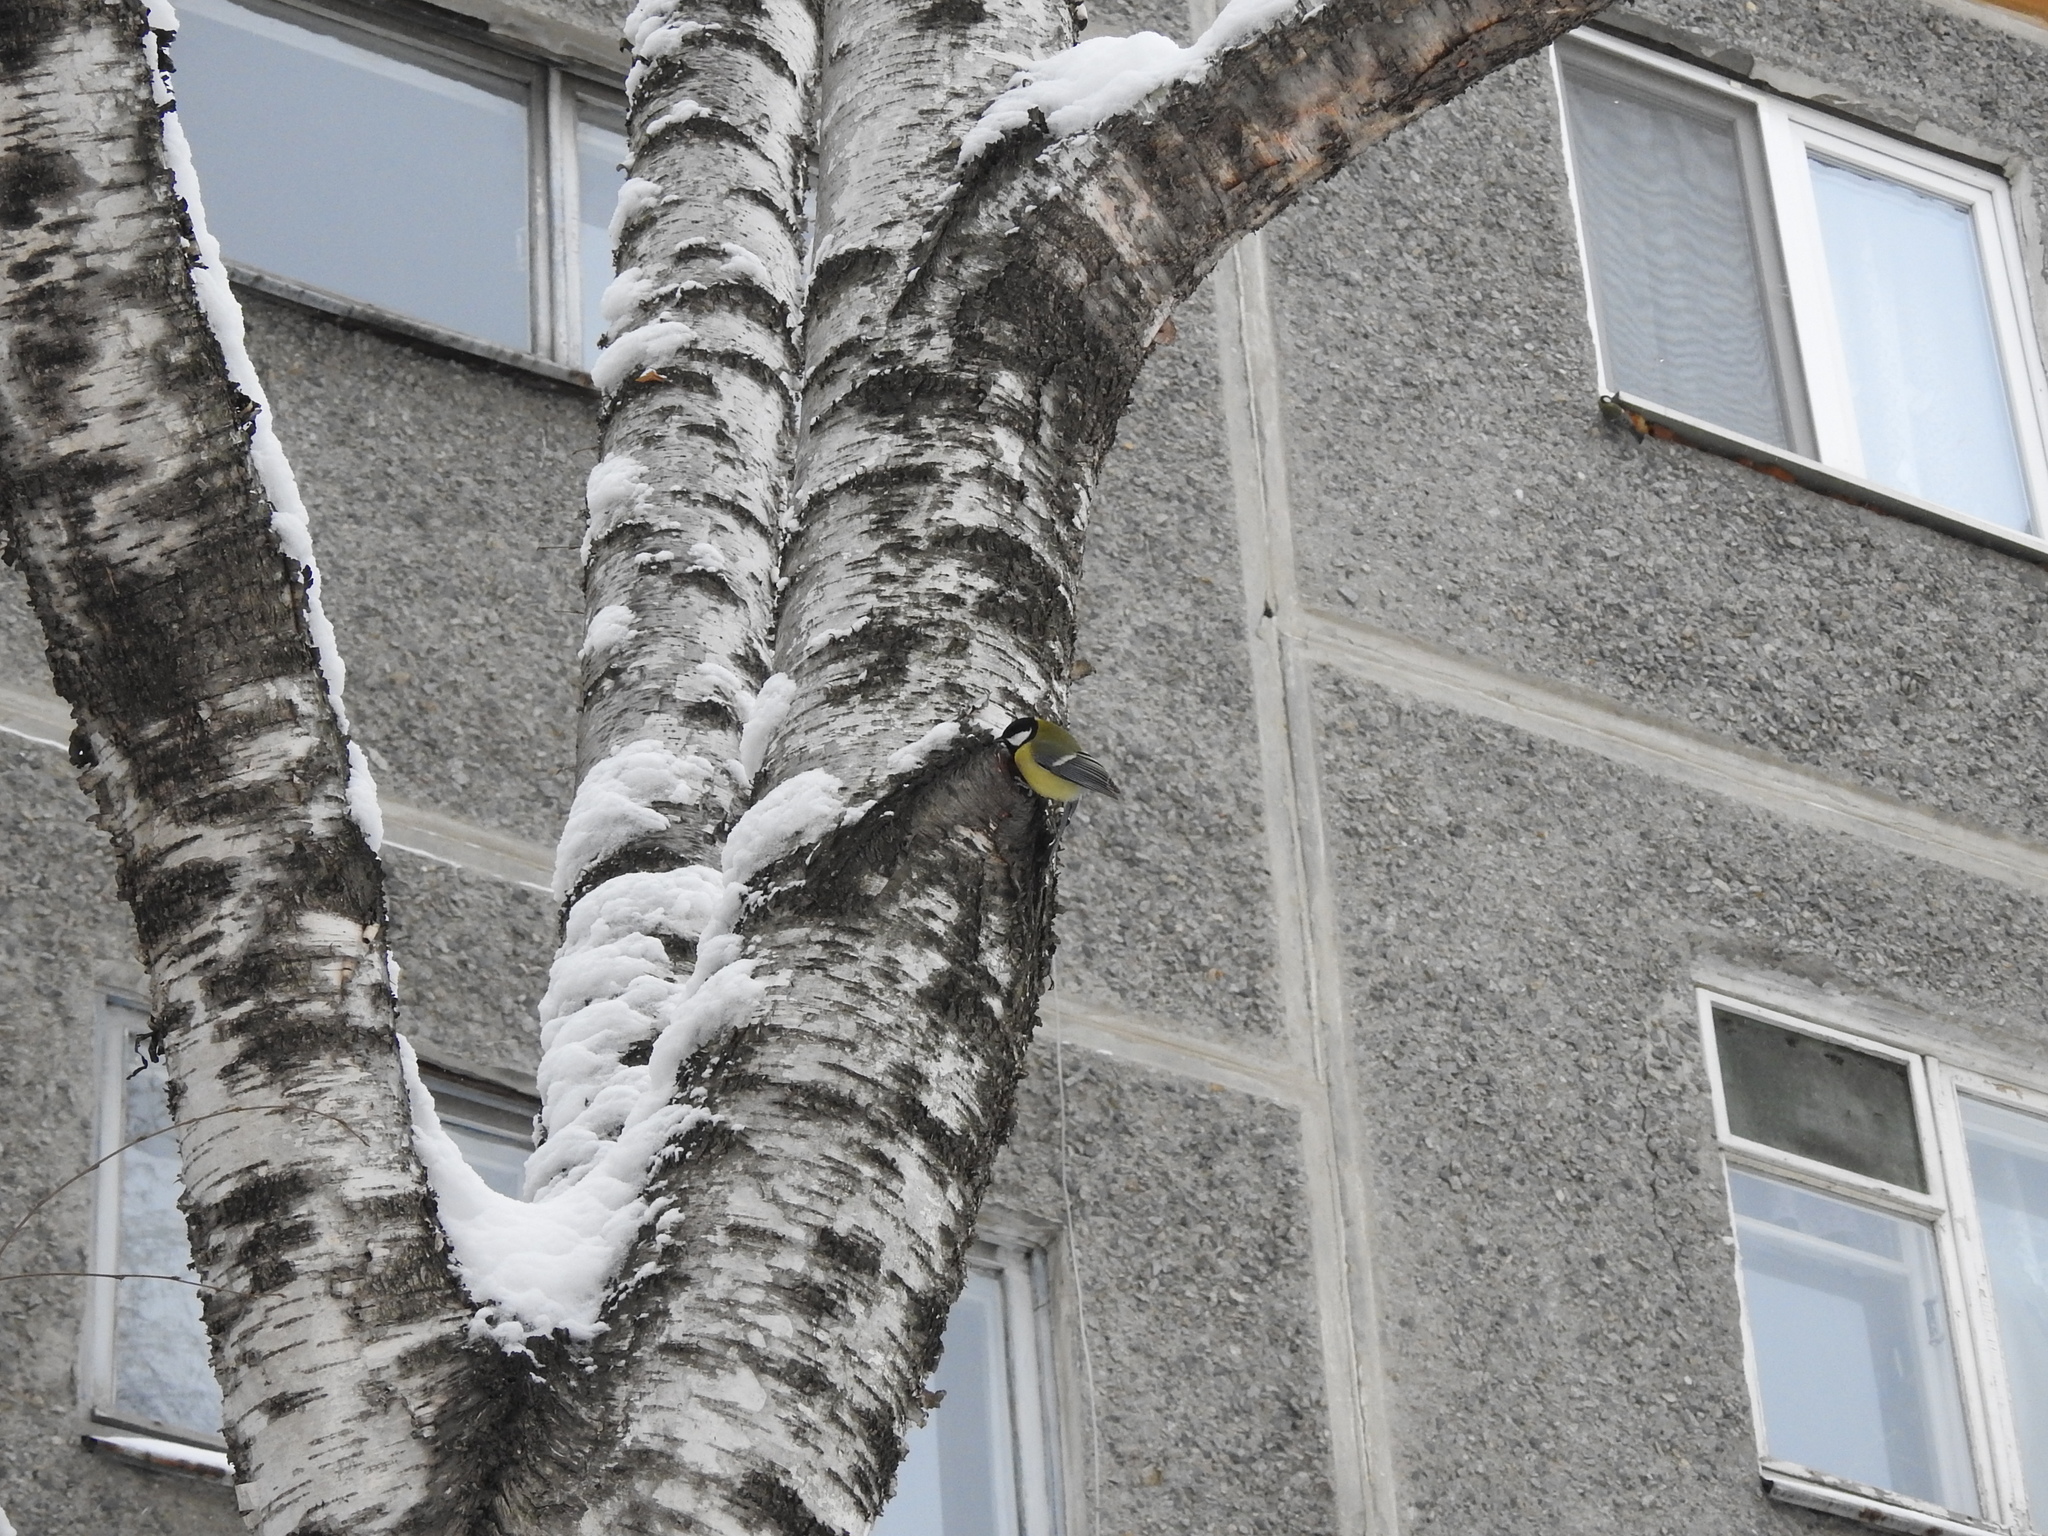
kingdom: Animalia
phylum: Chordata
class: Aves
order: Passeriformes
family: Paridae
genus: Parus
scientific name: Parus major
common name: Great tit
